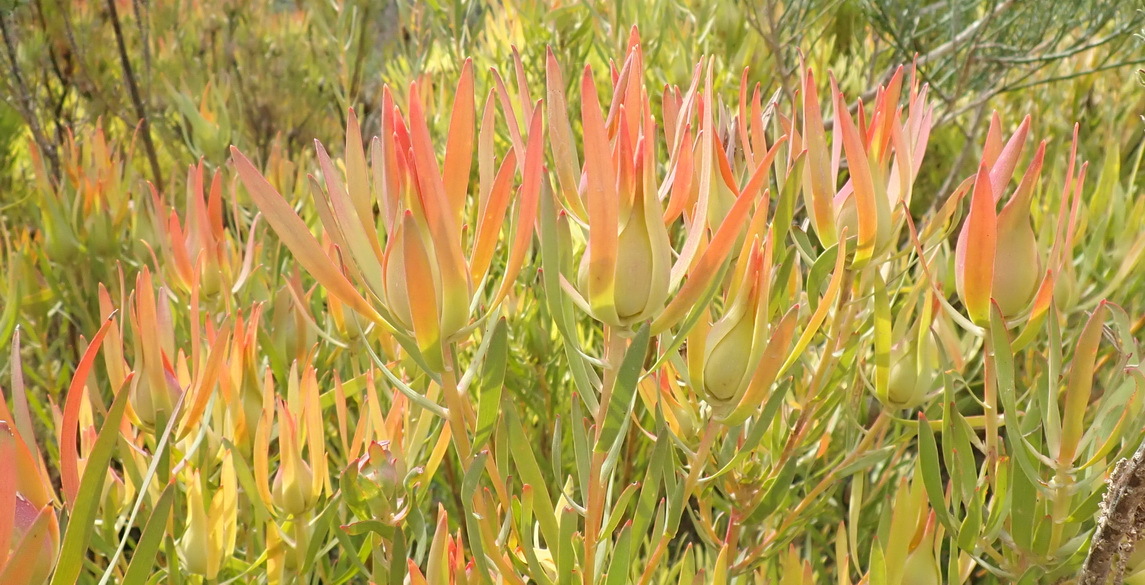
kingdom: Plantae
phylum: Tracheophyta
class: Magnoliopsida
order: Proteales
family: Proteaceae
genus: Leucadendron
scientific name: Leucadendron salignum
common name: Common sunshine conebush
